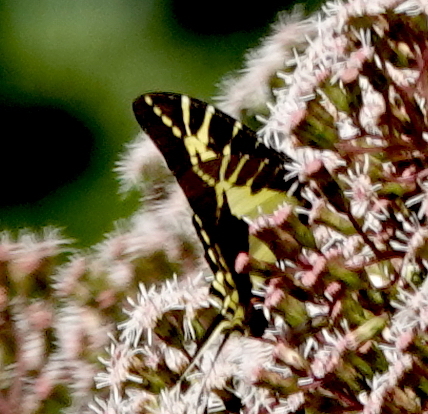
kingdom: Animalia
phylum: Arthropoda
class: Insecta
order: Lepidoptera
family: Papilionidae
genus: Eurytides
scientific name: Eurytides
